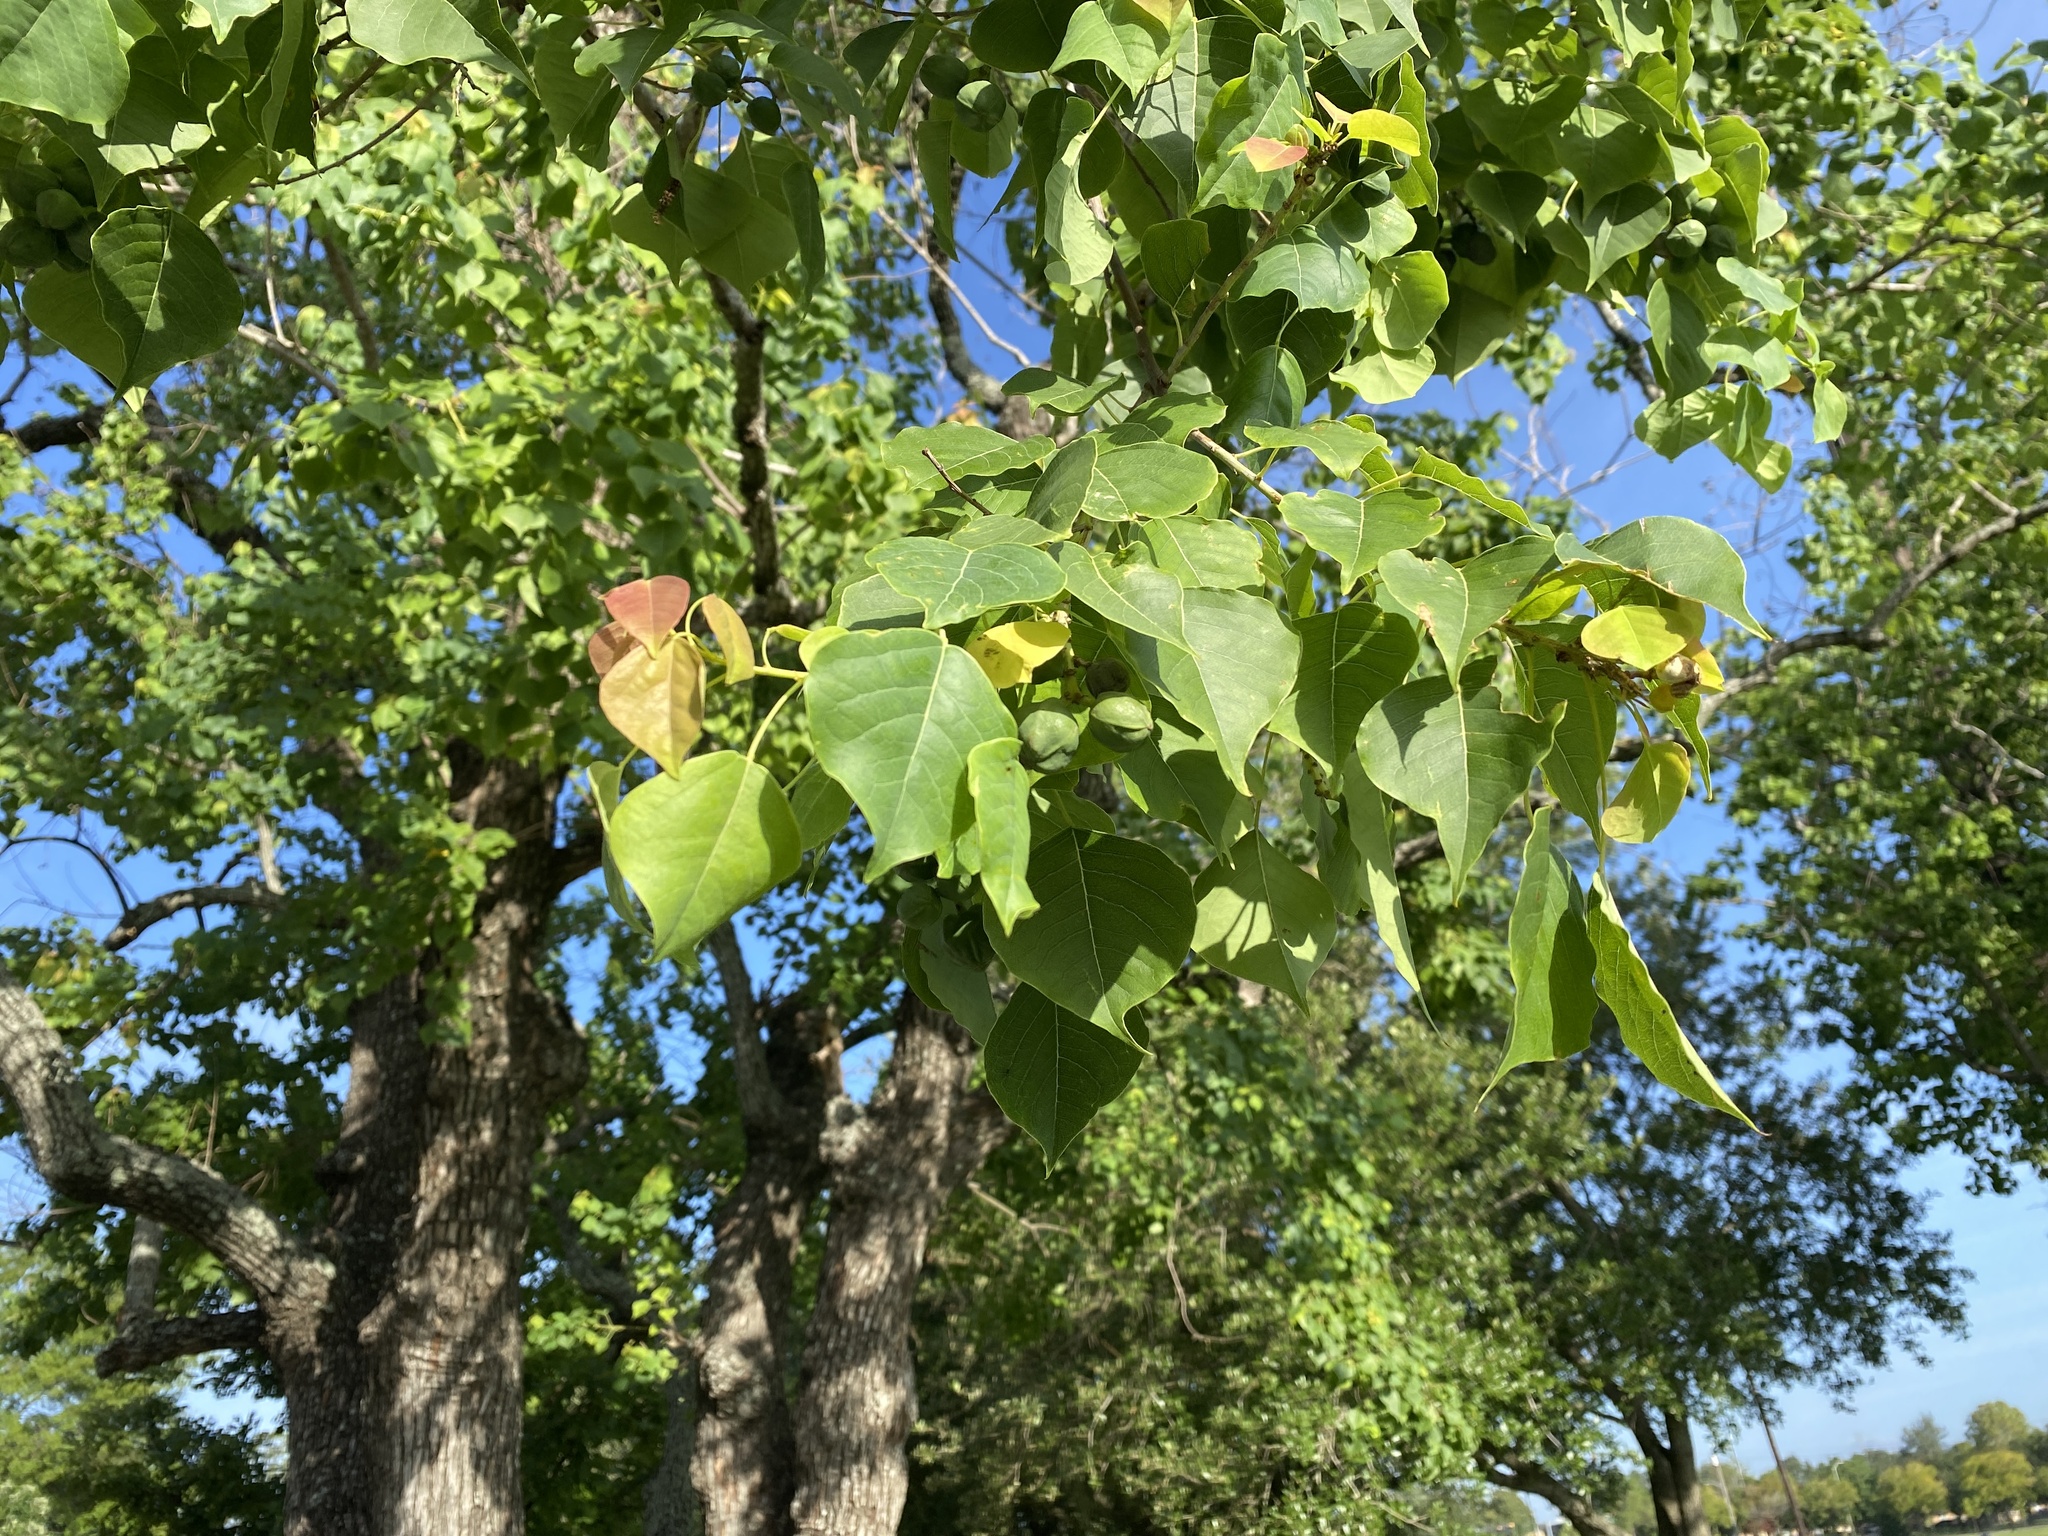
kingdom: Plantae
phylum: Tracheophyta
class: Magnoliopsida
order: Malpighiales
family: Euphorbiaceae
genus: Triadica
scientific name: Triadica sebifera
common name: Chinese tallow
